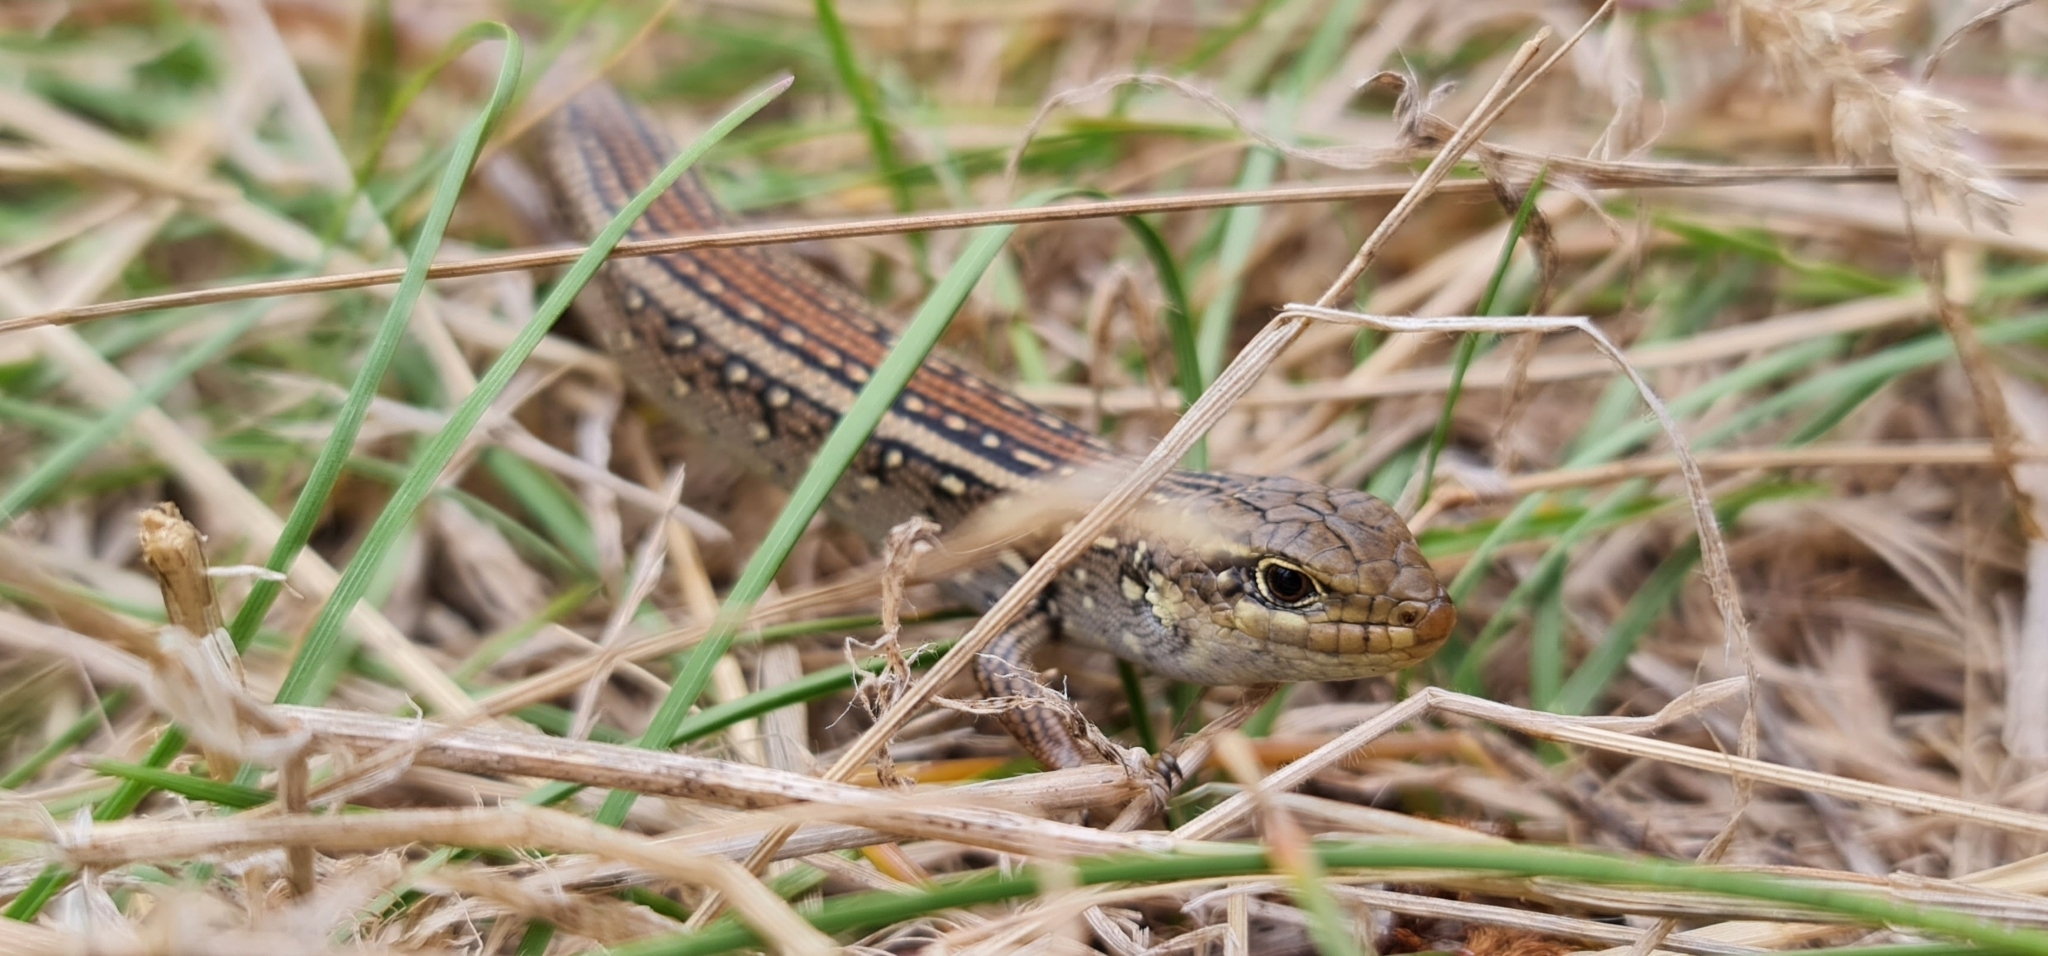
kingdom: Animalia
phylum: Chordata
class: Squamata
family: Scincidae
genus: Liopholis
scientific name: Liopholis whitii
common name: White's rock-skink
